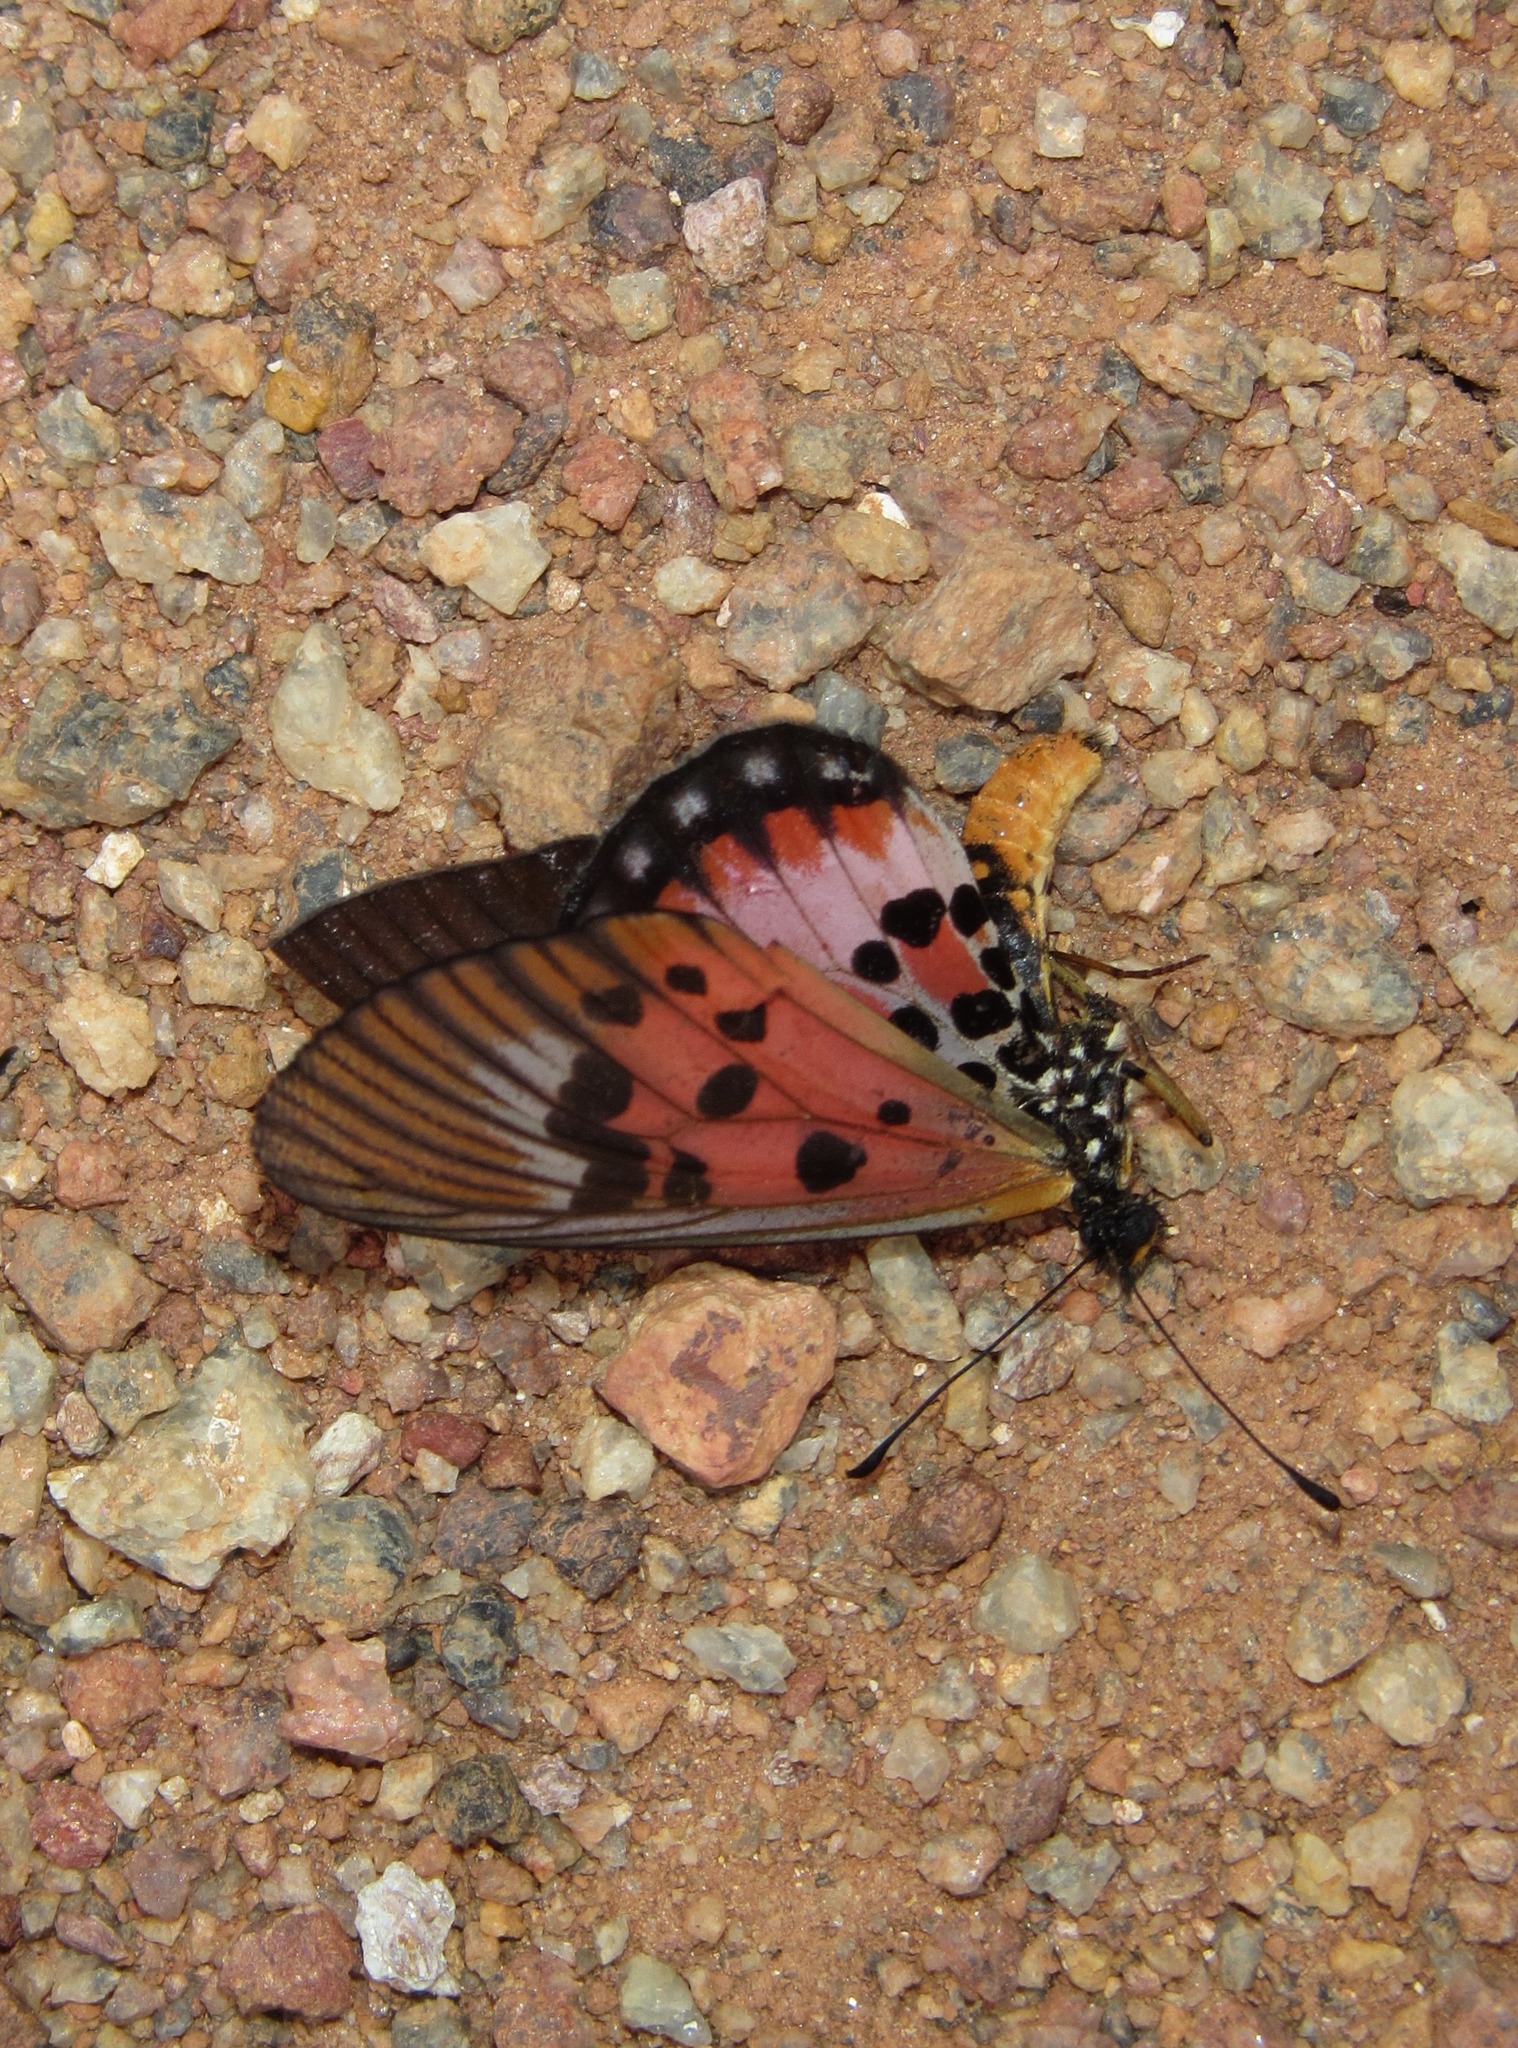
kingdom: Animalia
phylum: Arthropoda
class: Insecta
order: Lepidoptera
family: Nymphalidae
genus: Rubraea
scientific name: Rubraea
